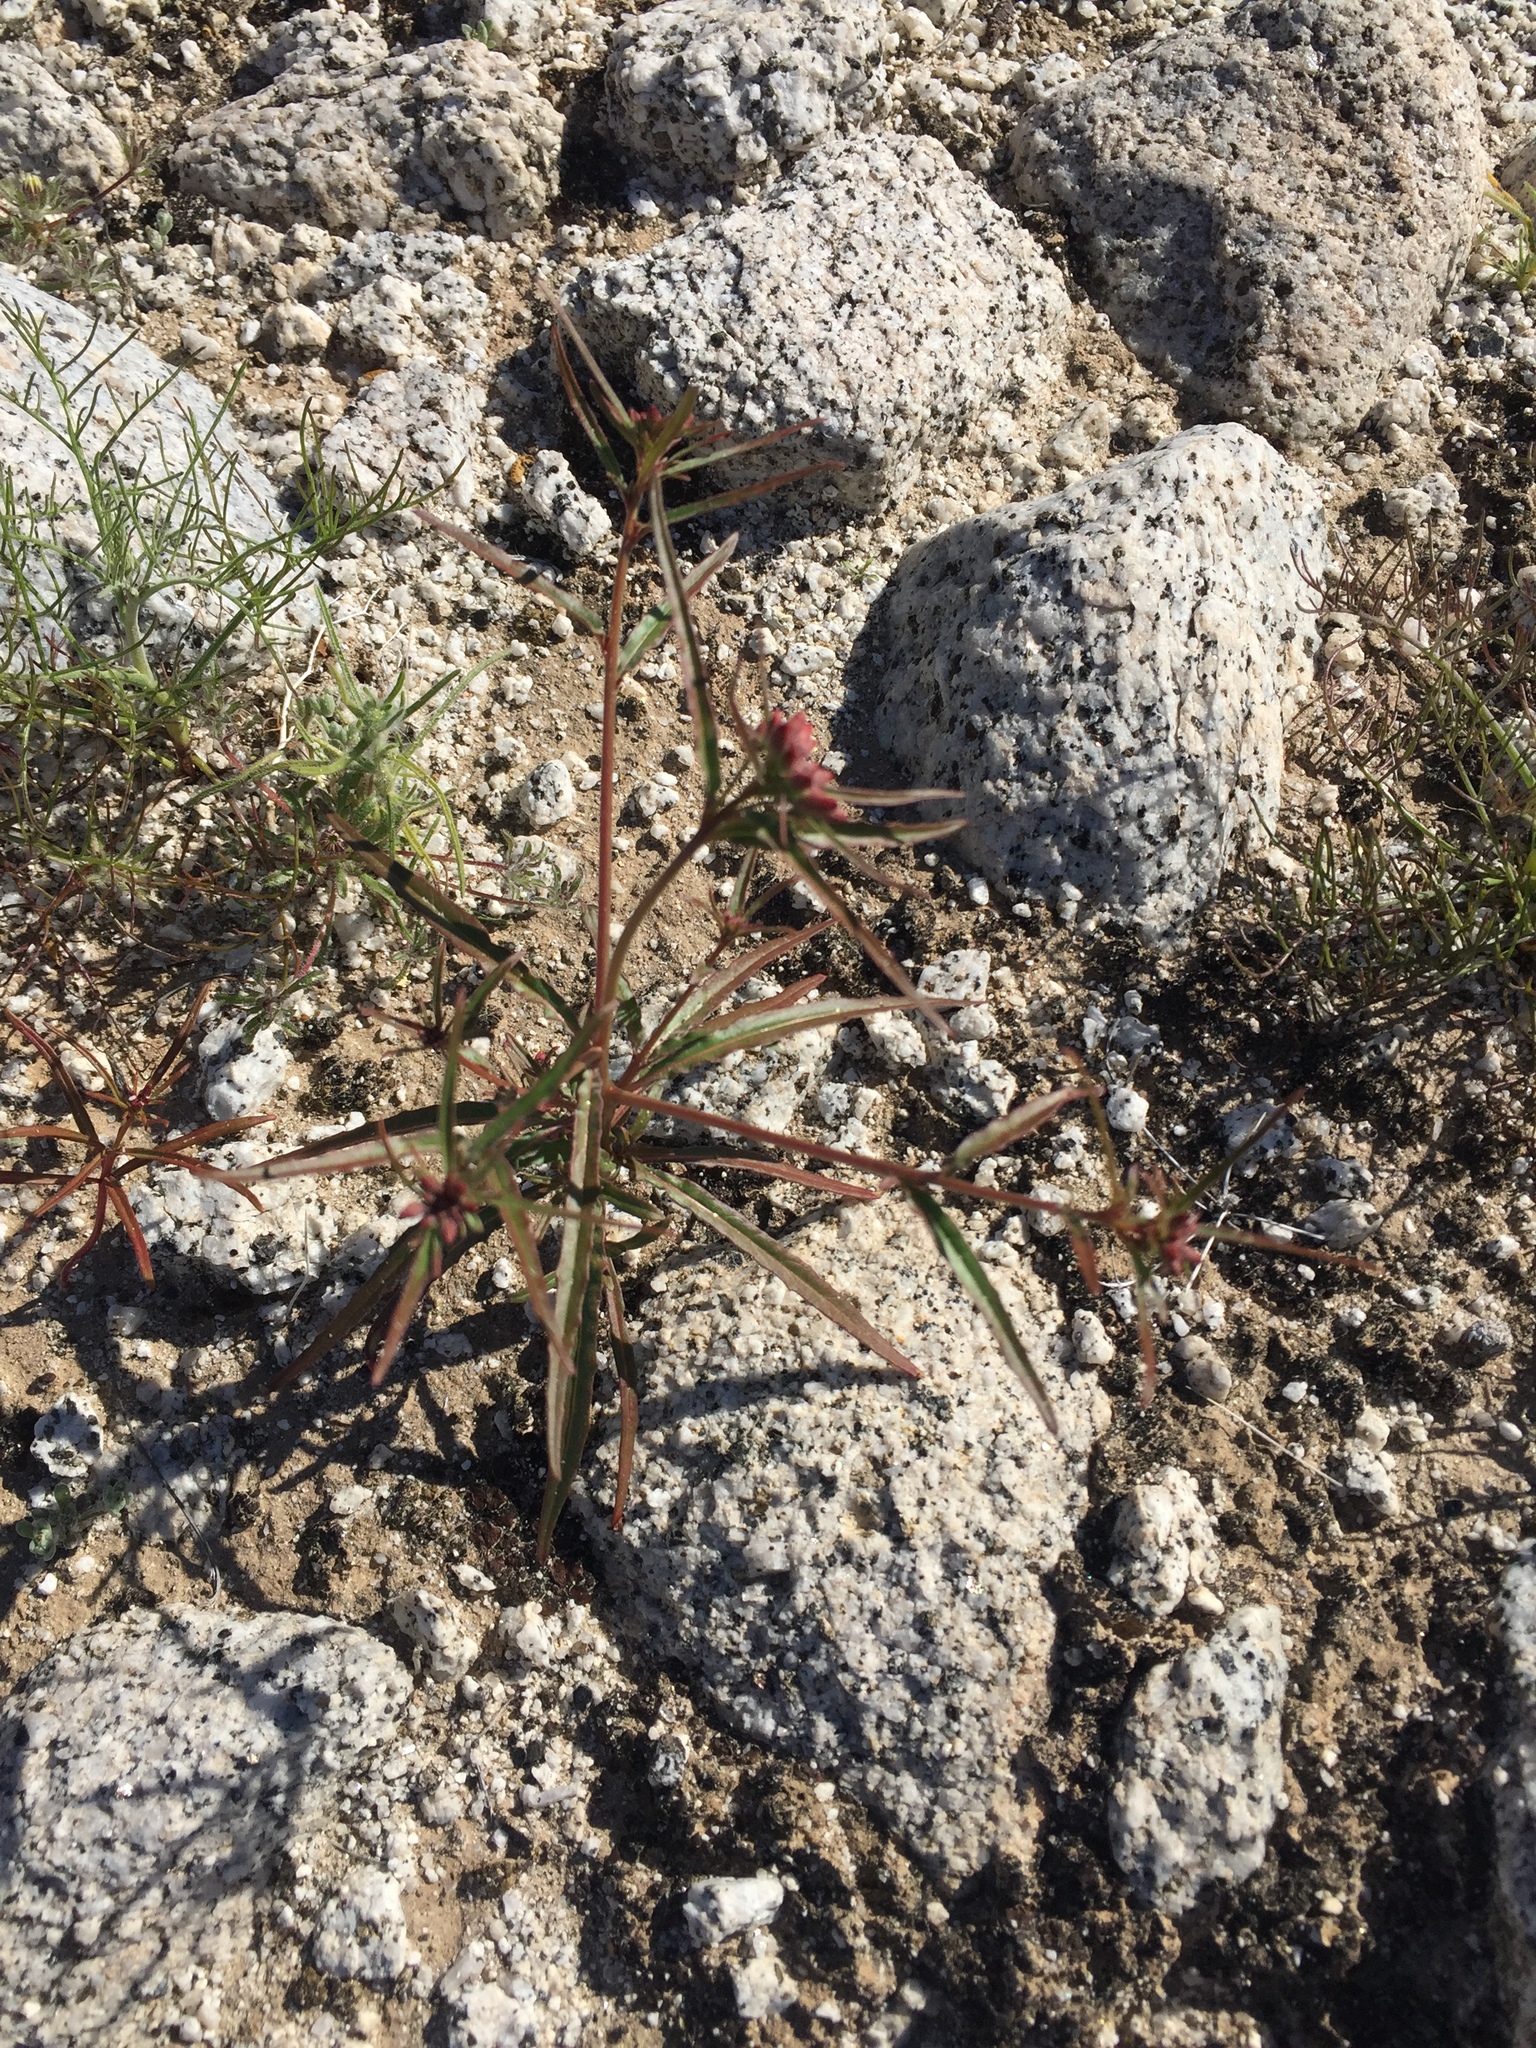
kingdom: Plantae
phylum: Tracheophyta
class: Magnoliopsida
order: Myrtales
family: Onagraceae
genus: Eremothera
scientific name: Eremothera refracta
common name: Narrowleaf suncup
